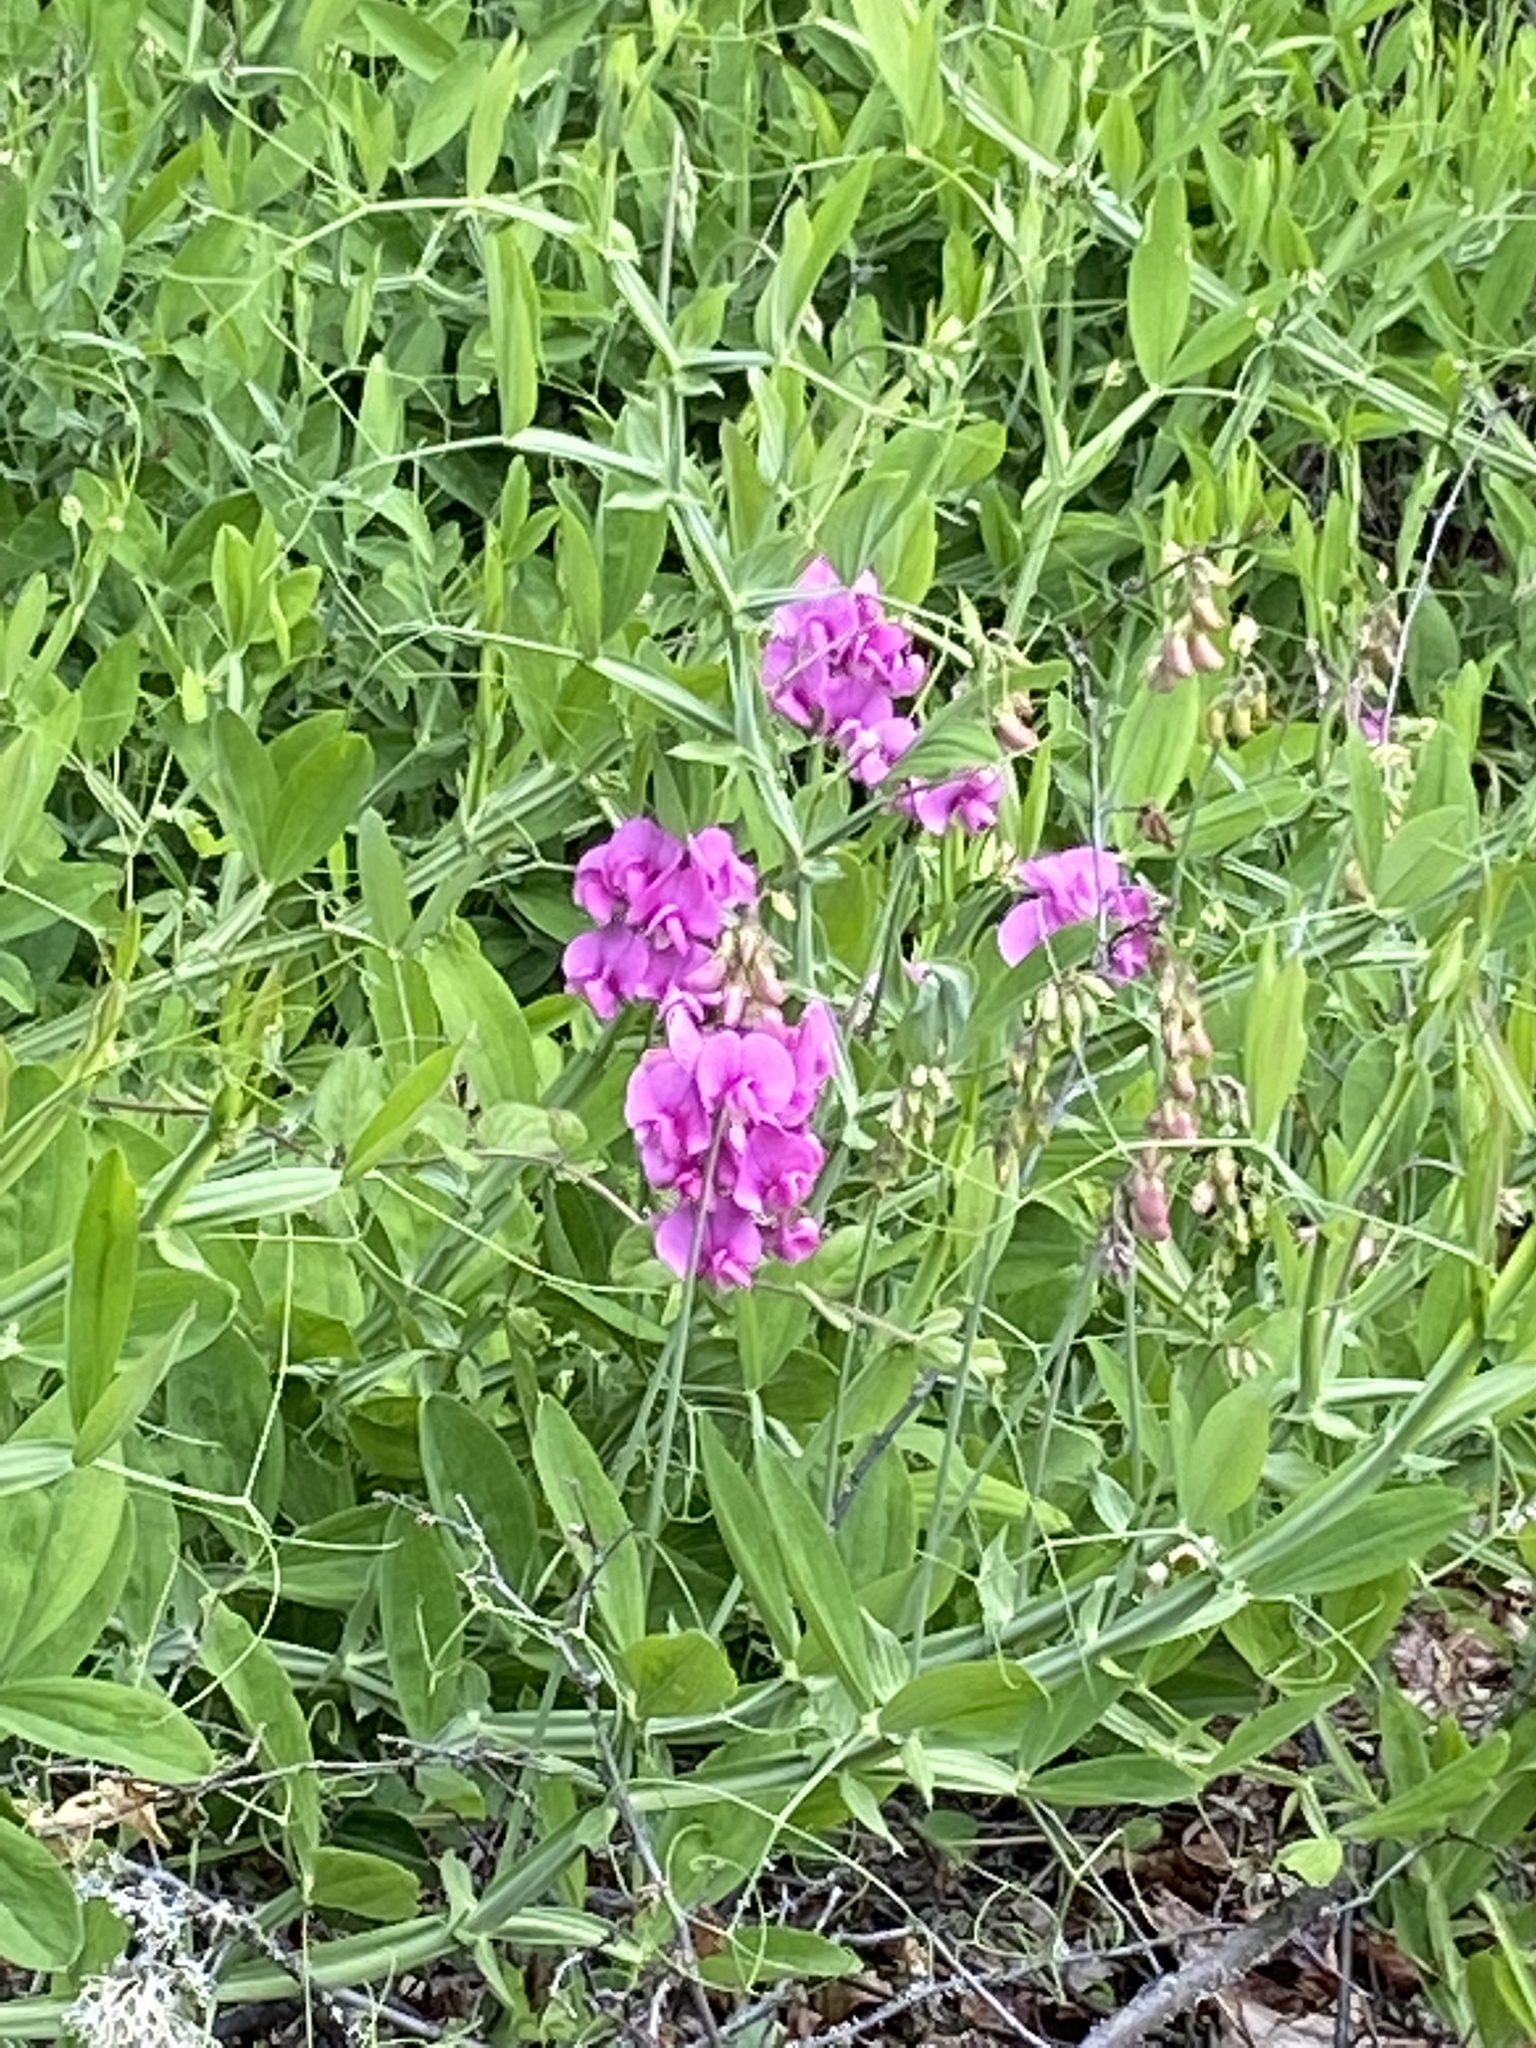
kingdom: Plantae
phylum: Tracheophyta
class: Magnoliopsida
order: Fabales
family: Fabaceae
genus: Lathyrus
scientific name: Lathyrus latifolius
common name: Perennial pea
